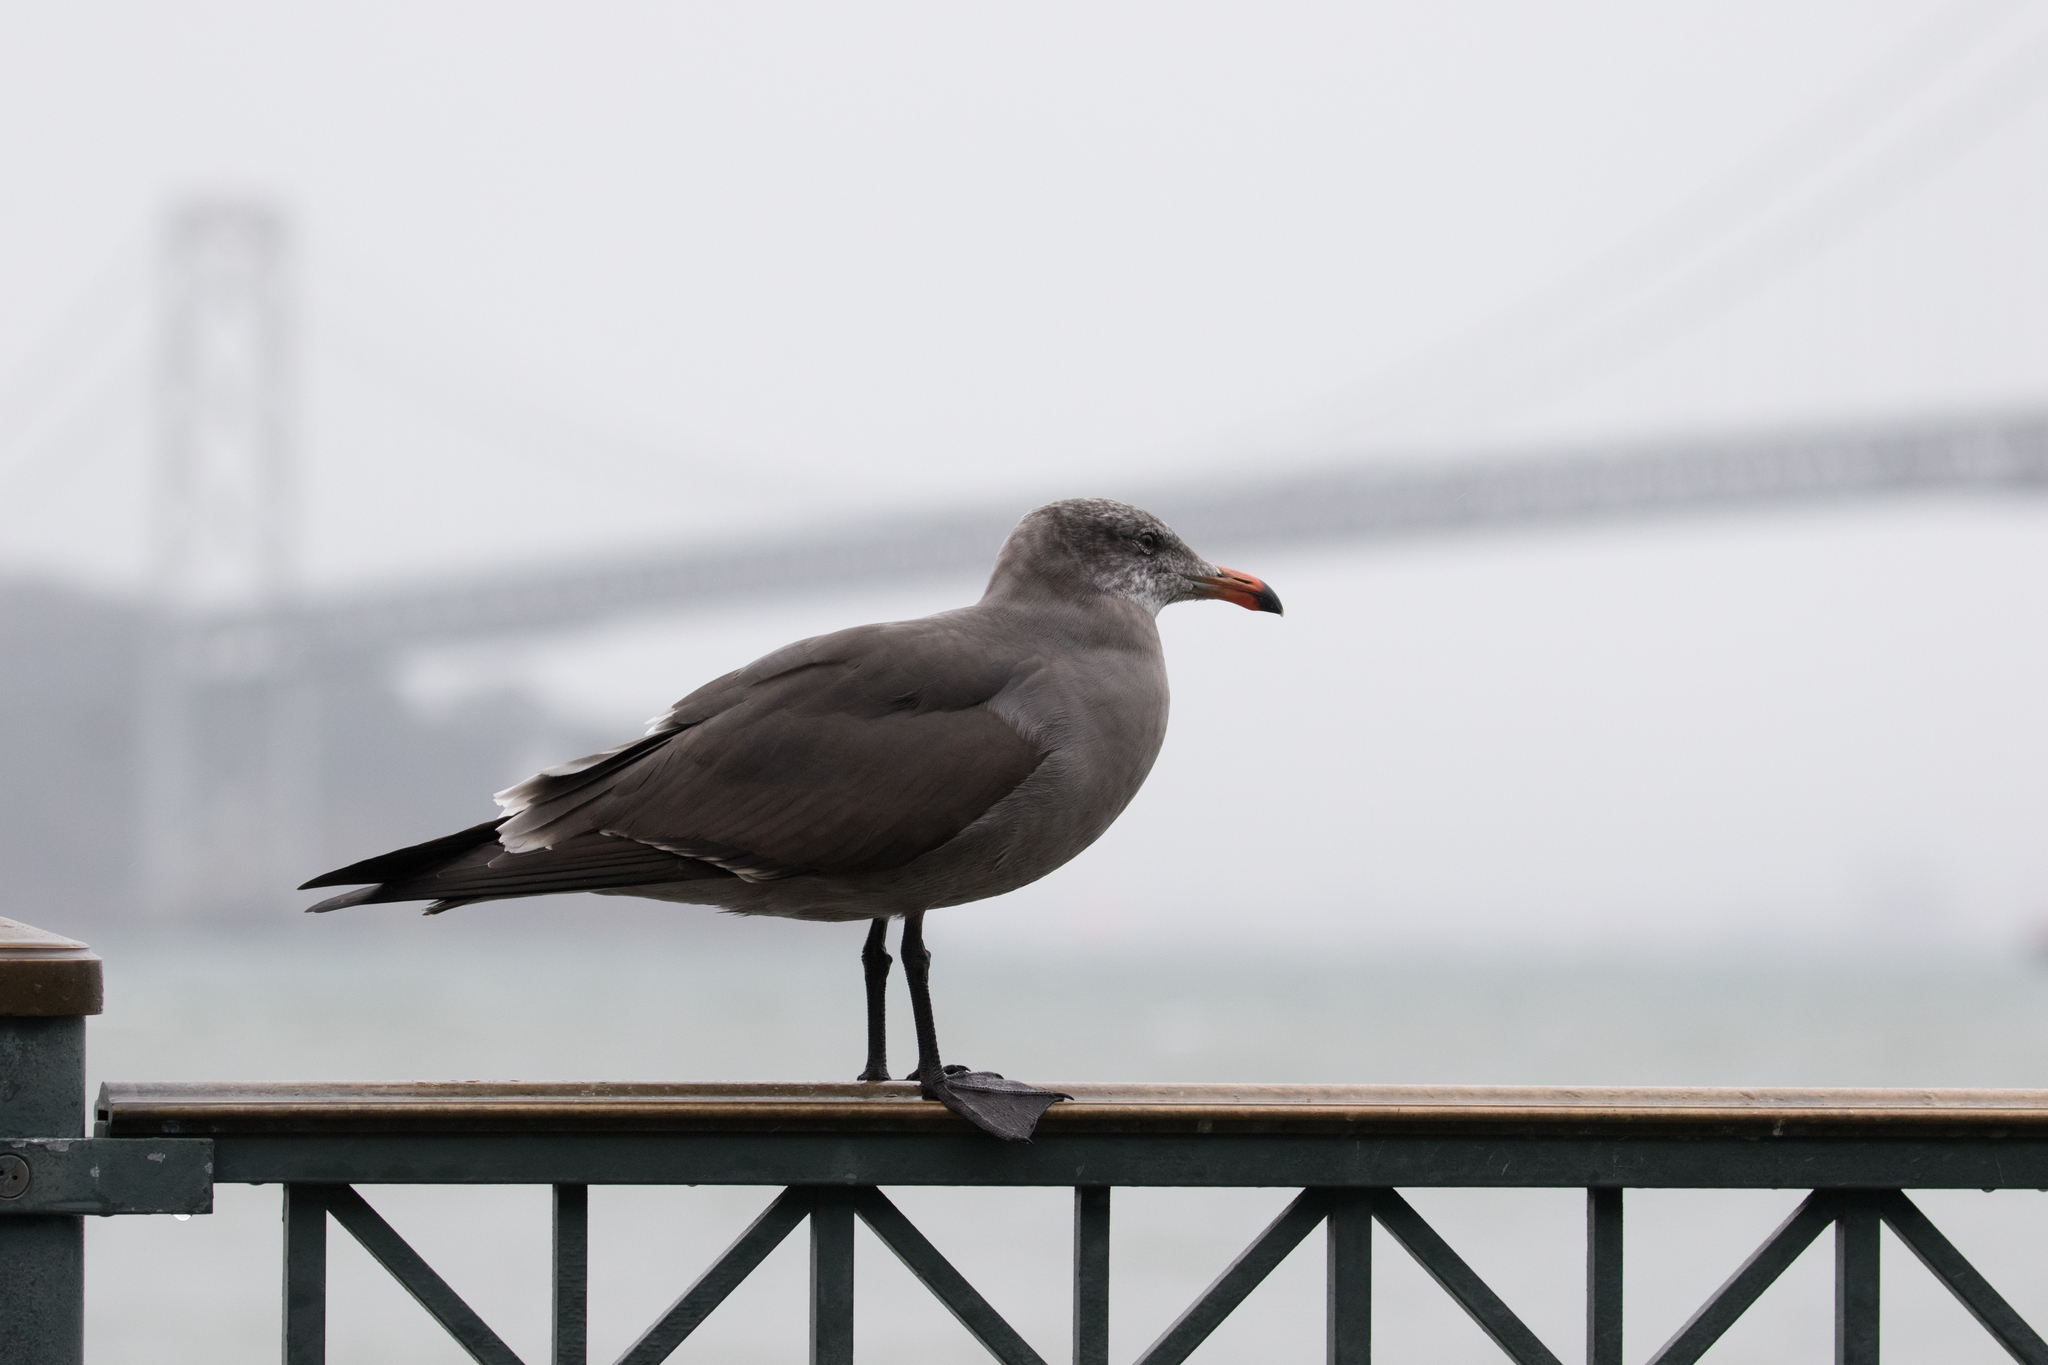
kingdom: Animalia
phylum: Chordata
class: Aves
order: Charadriiformes
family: Laridae
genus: Larus
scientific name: Larus heermanni
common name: Heermann's gull
